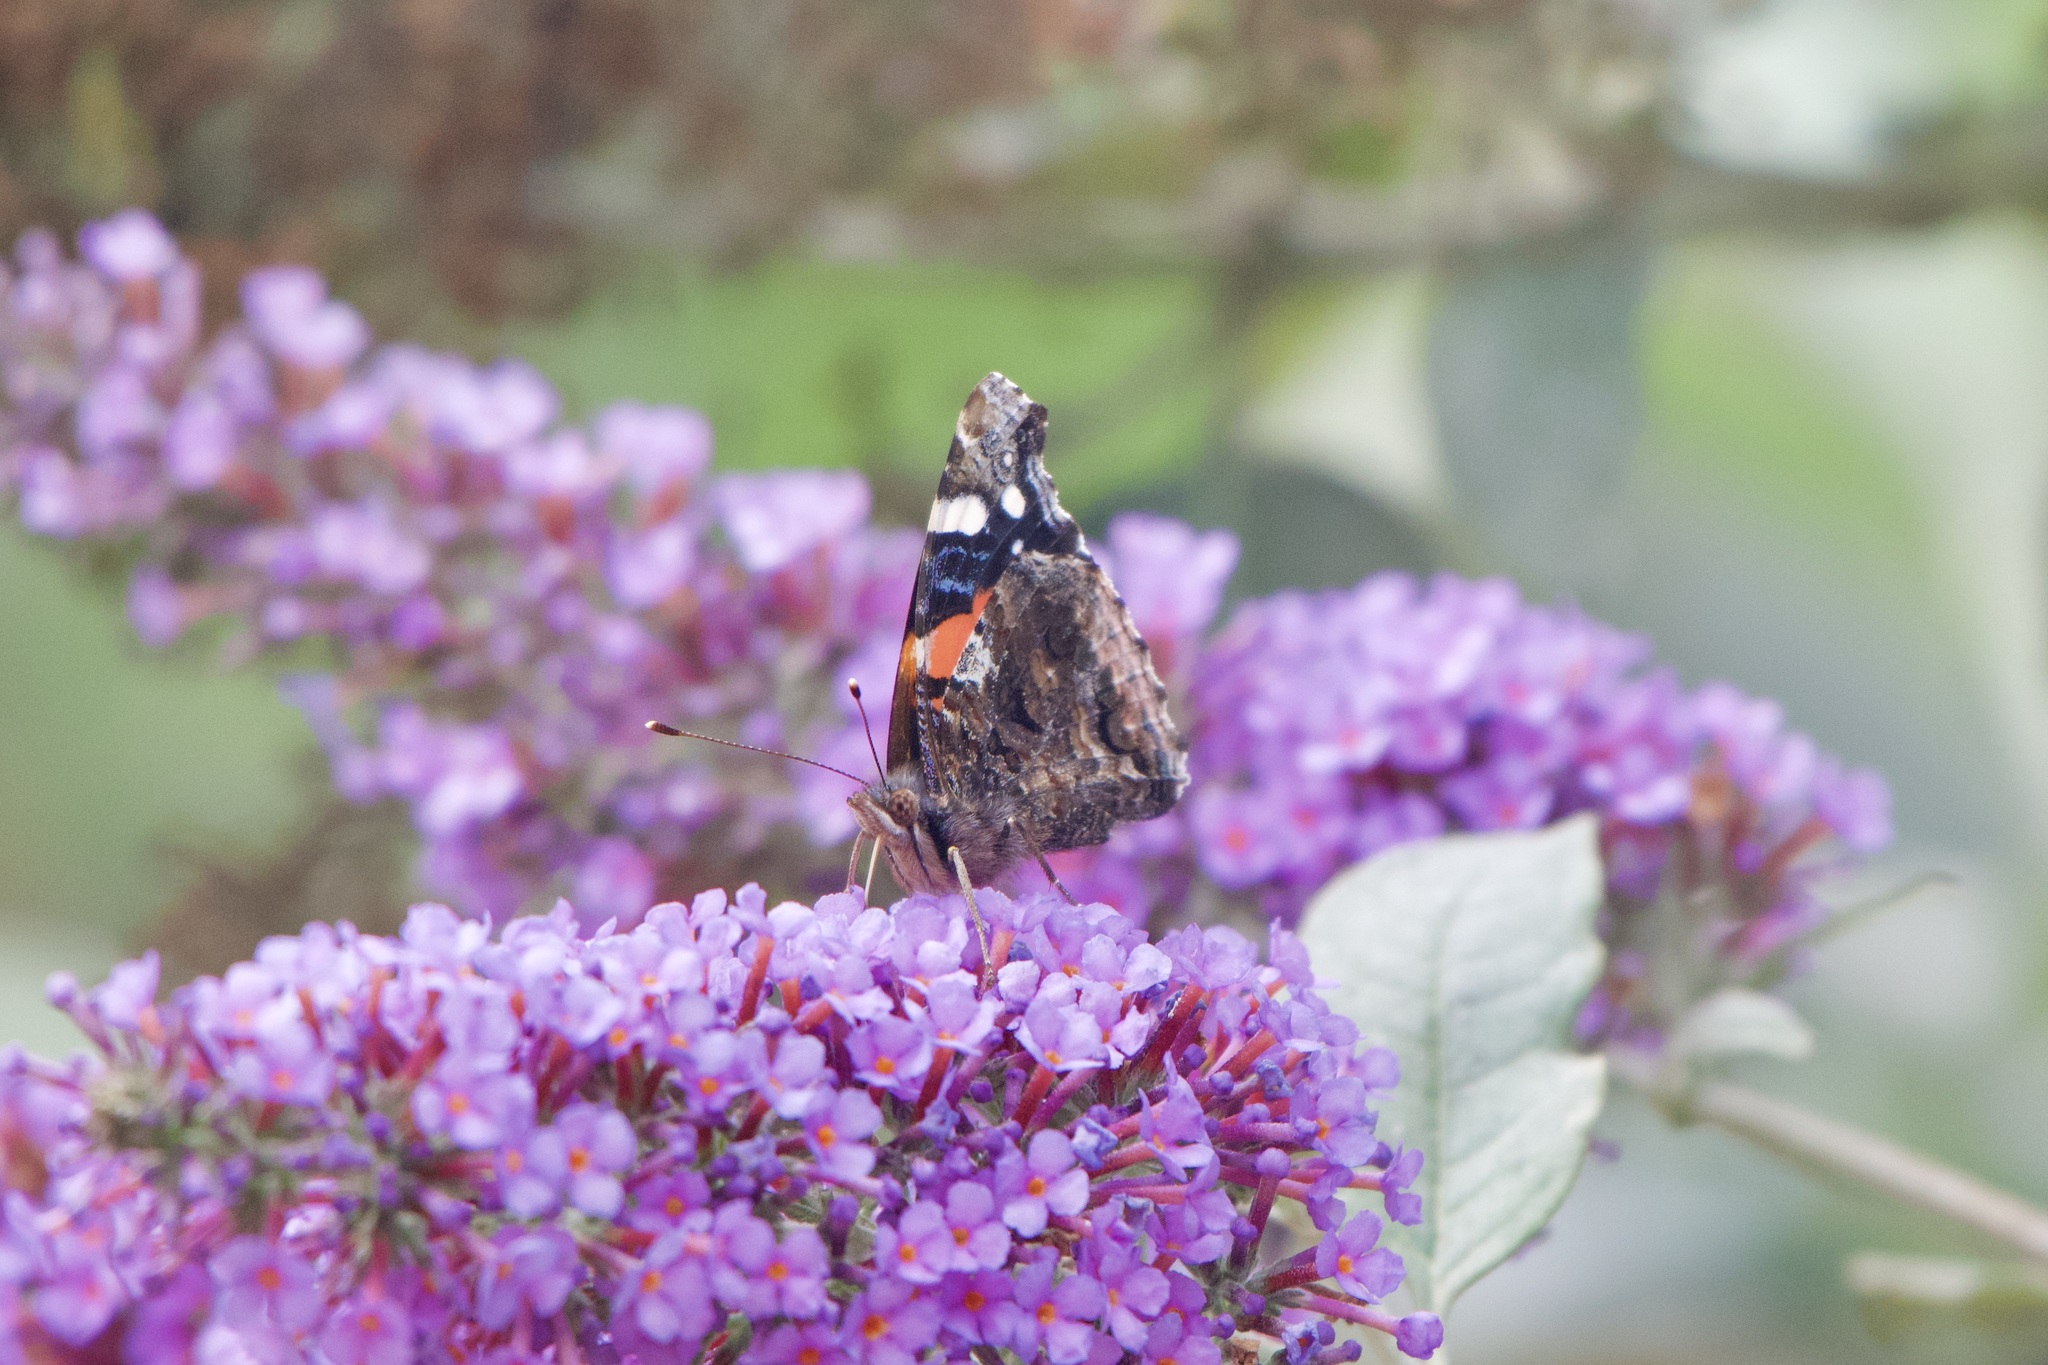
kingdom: Animalia
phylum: Arthropoda
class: Insecta
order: Lepidoptera
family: Nymphalidae
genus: Vanessa
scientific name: Vanessa atalanta
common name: Red admiral
